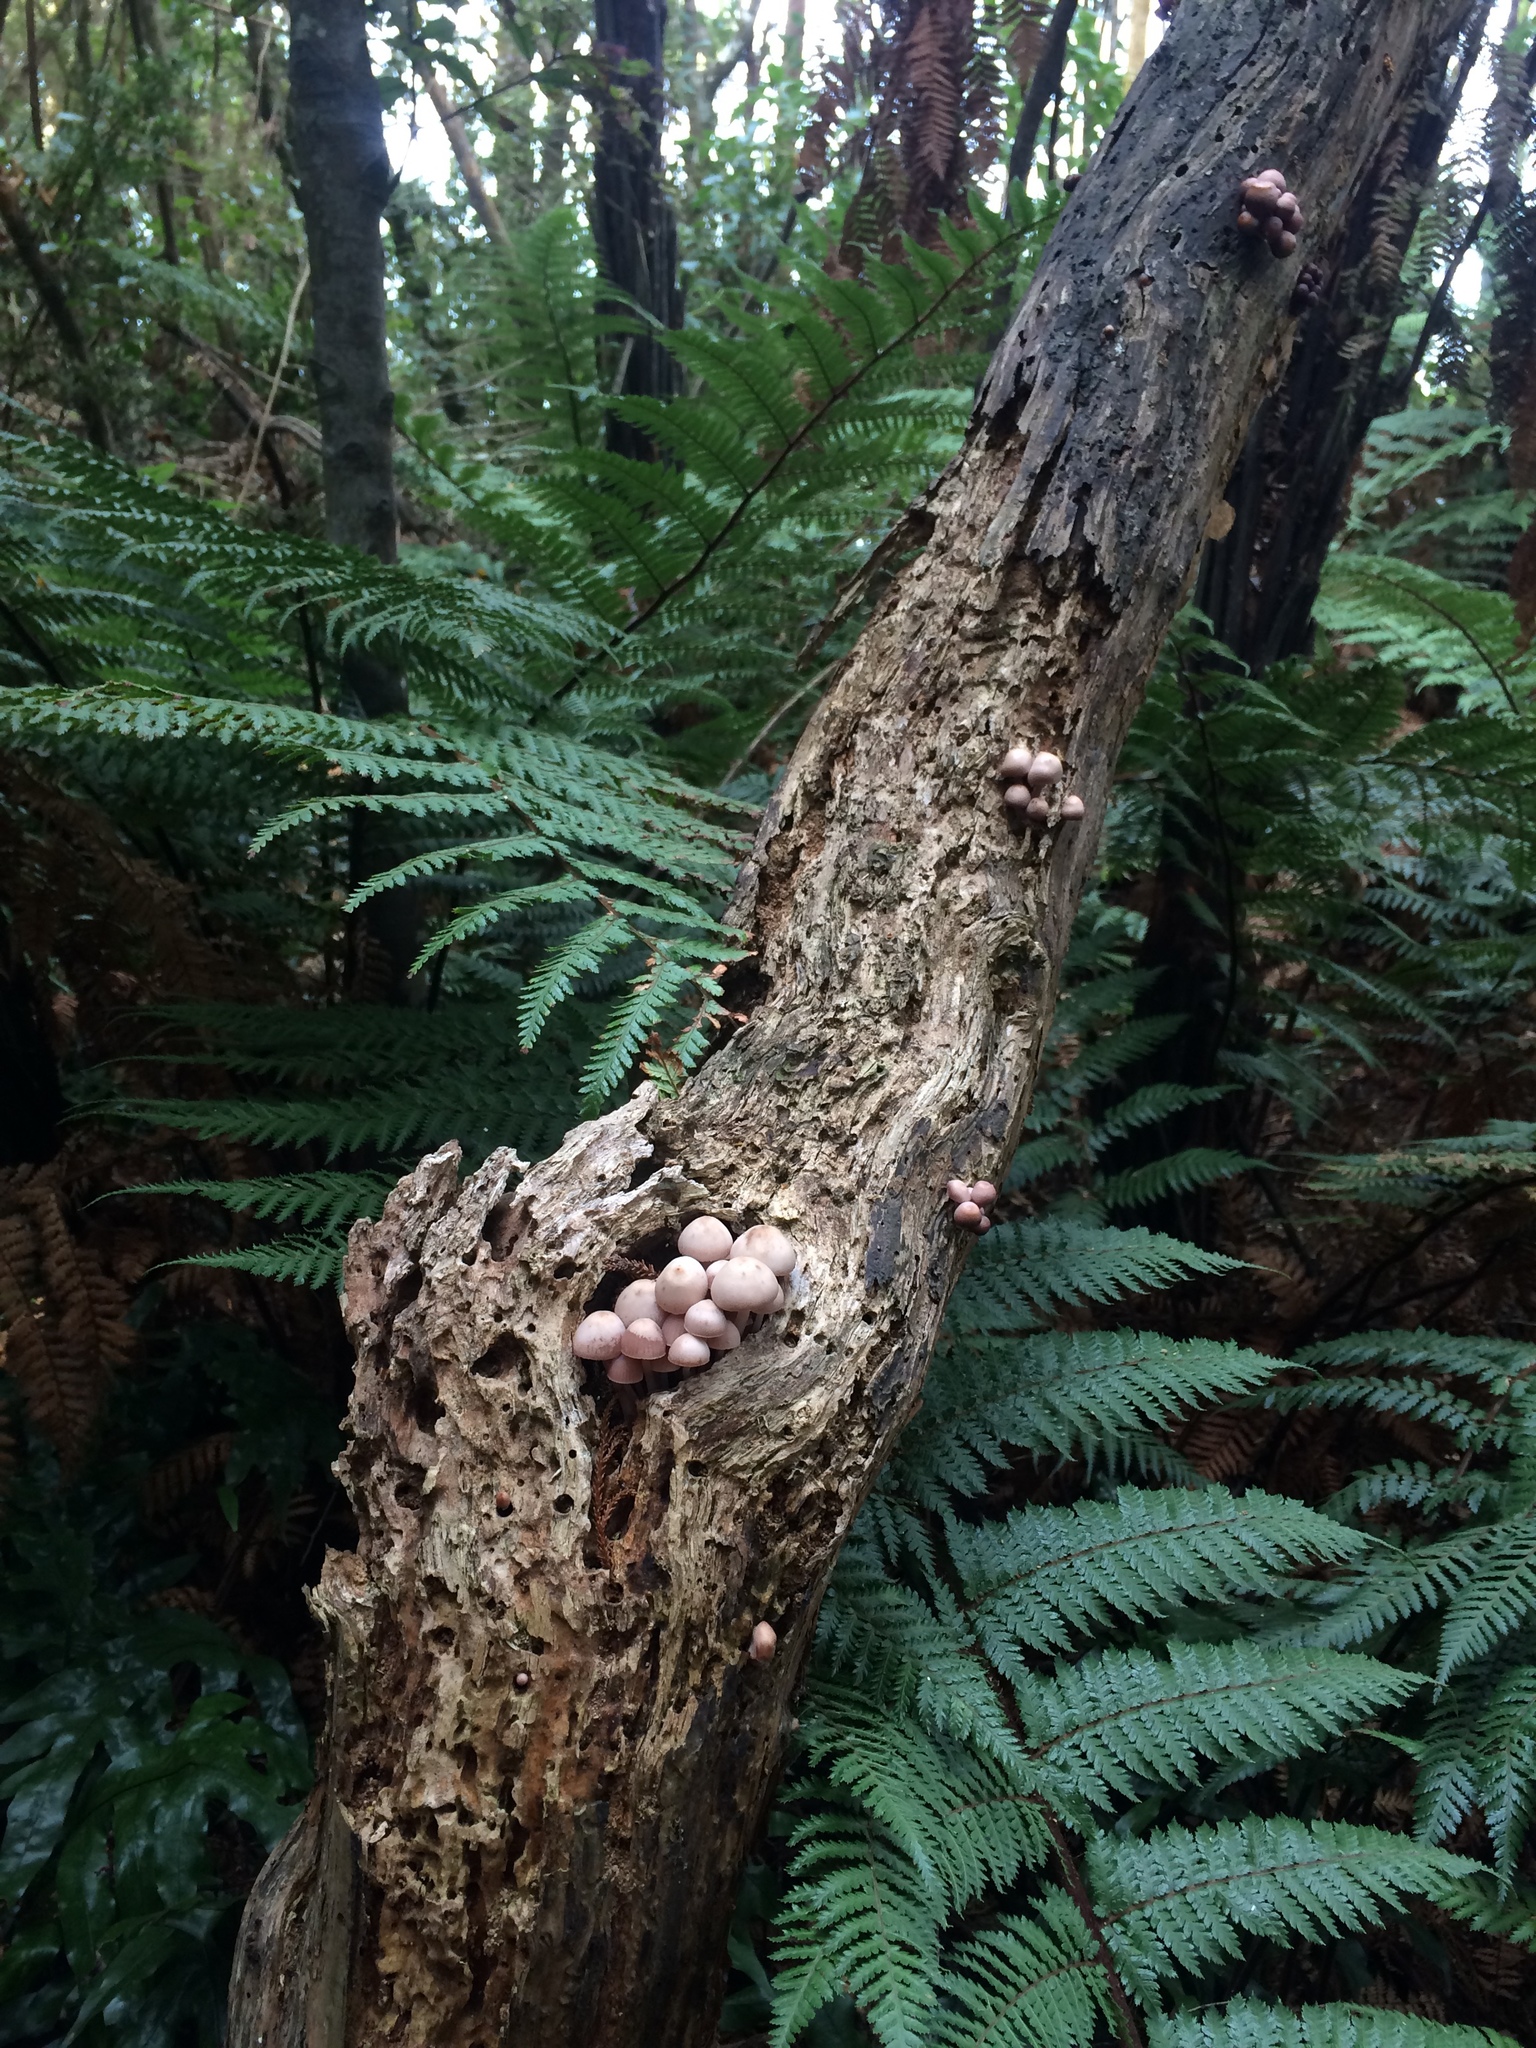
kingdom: Fungi
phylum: Basidiomycota
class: Agaricomycetes
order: Agaricales
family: Mycenaceae
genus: Mycena
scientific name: Mycena clarkeana
